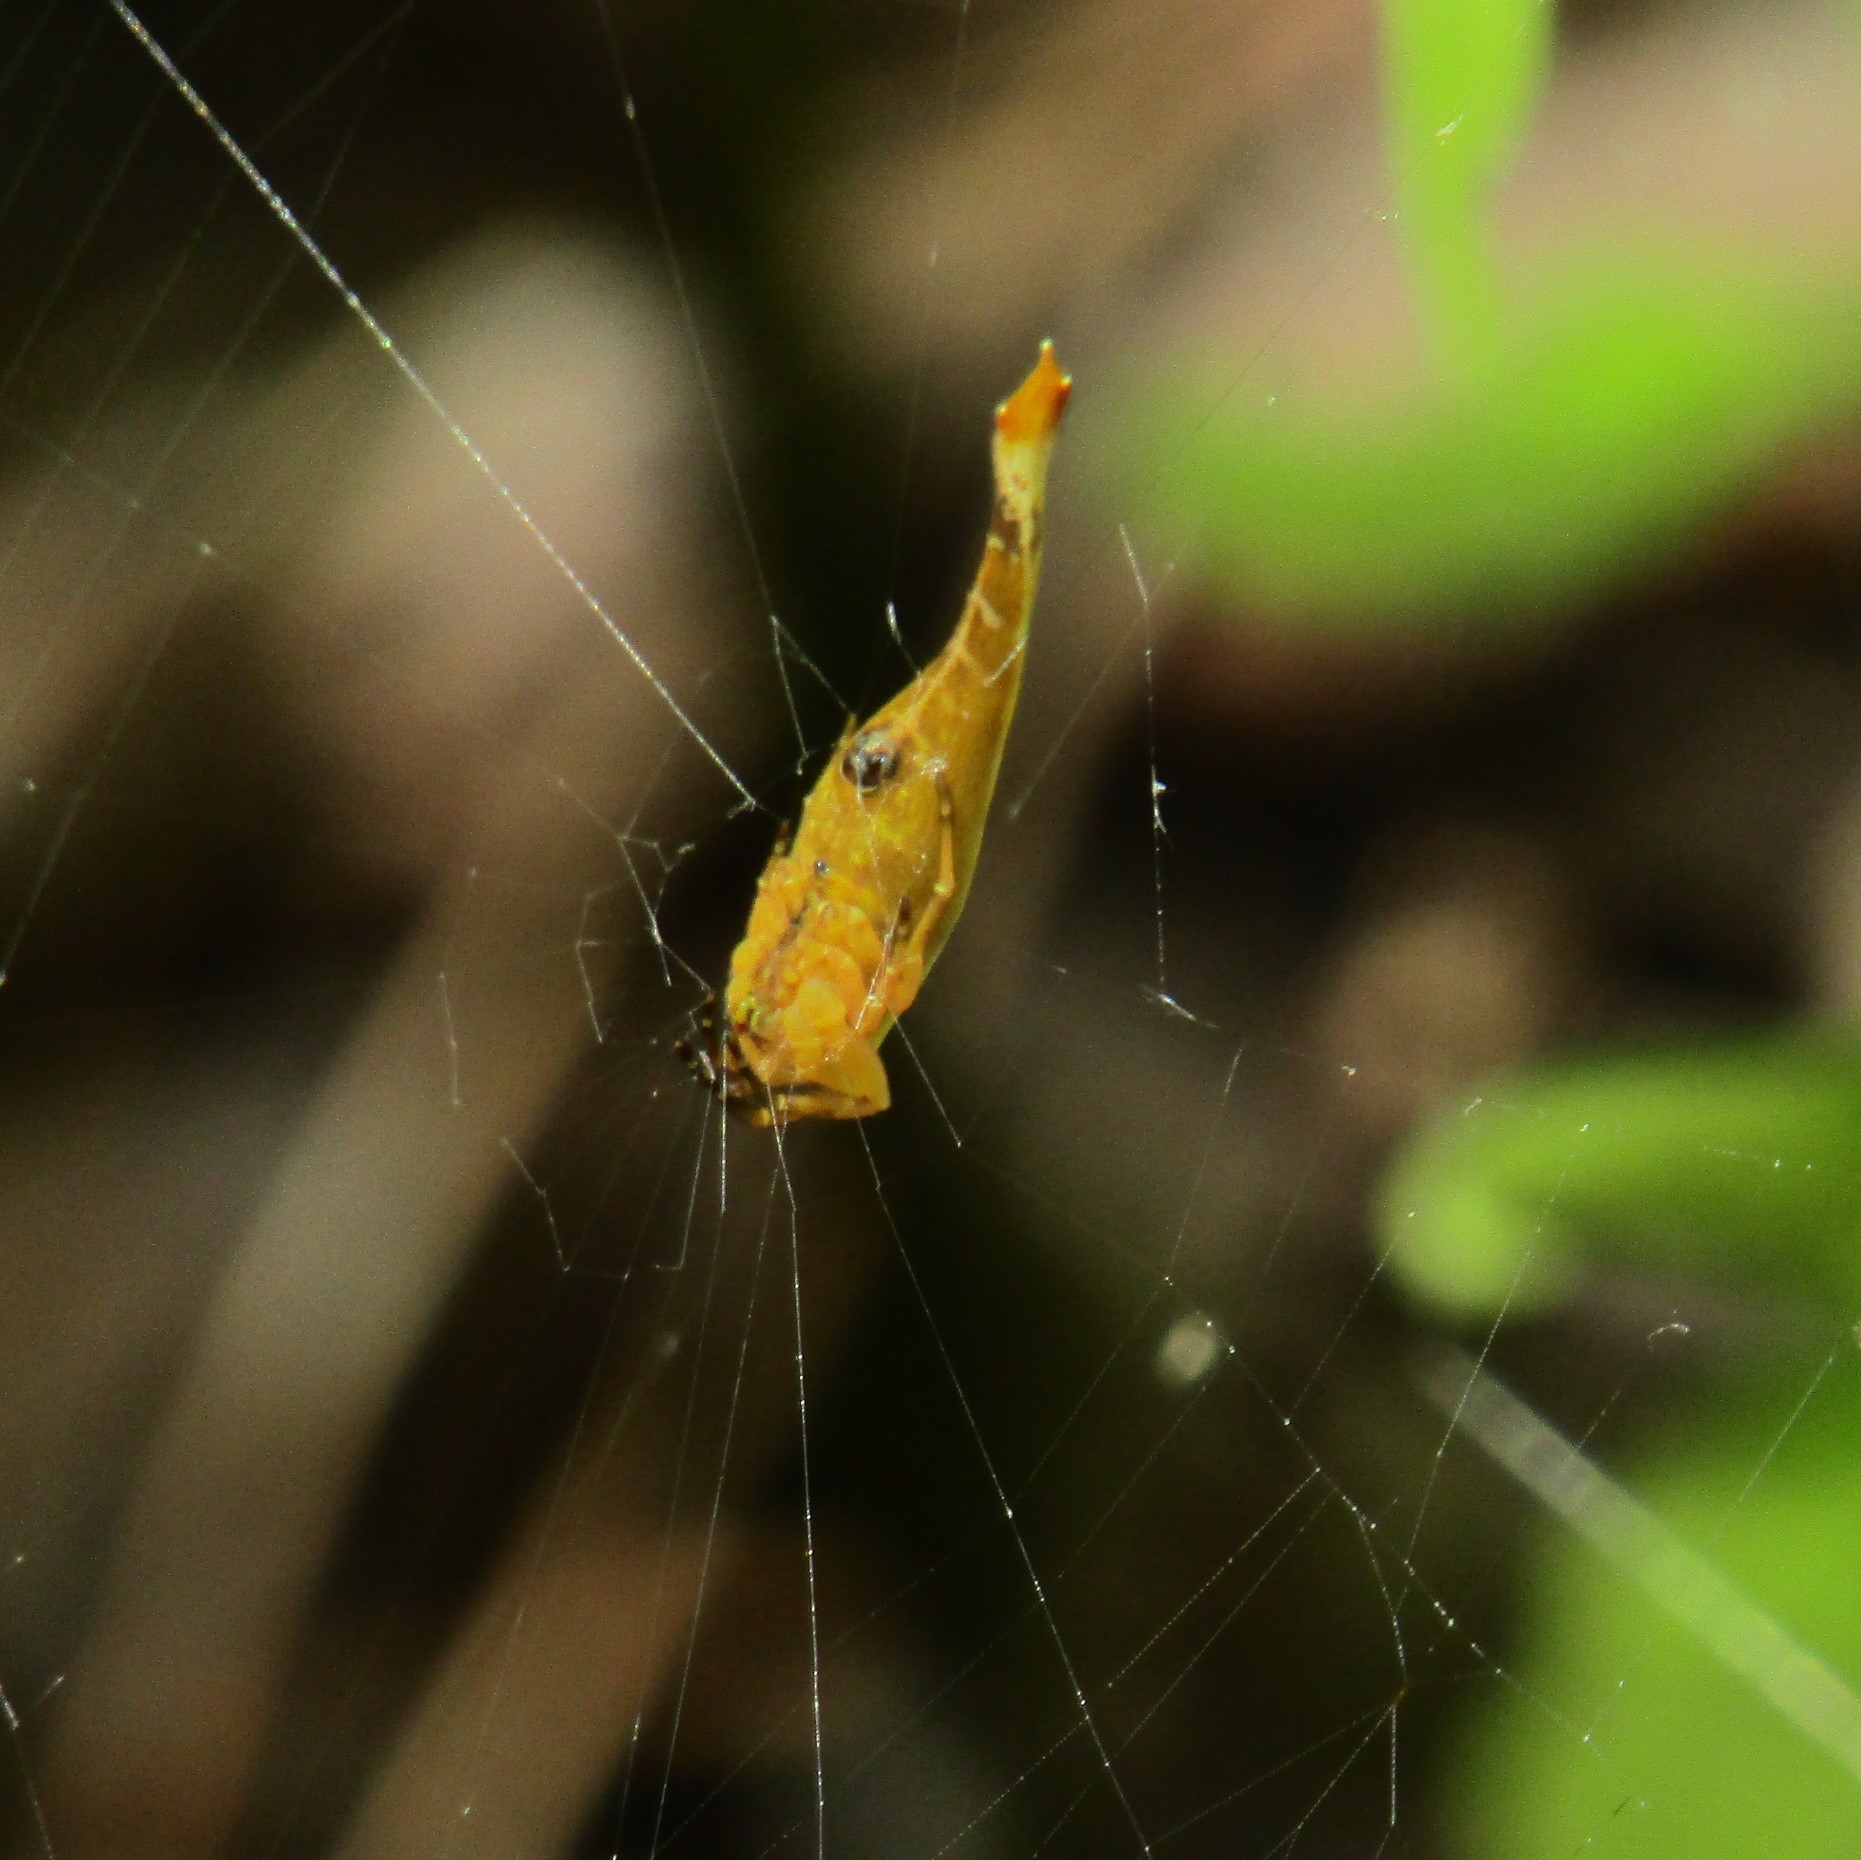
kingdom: Animalia
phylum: Arthropoda
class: Arachnida
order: Araneae
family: Araneidae
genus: Arachnura
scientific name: Arachnura feredayi
